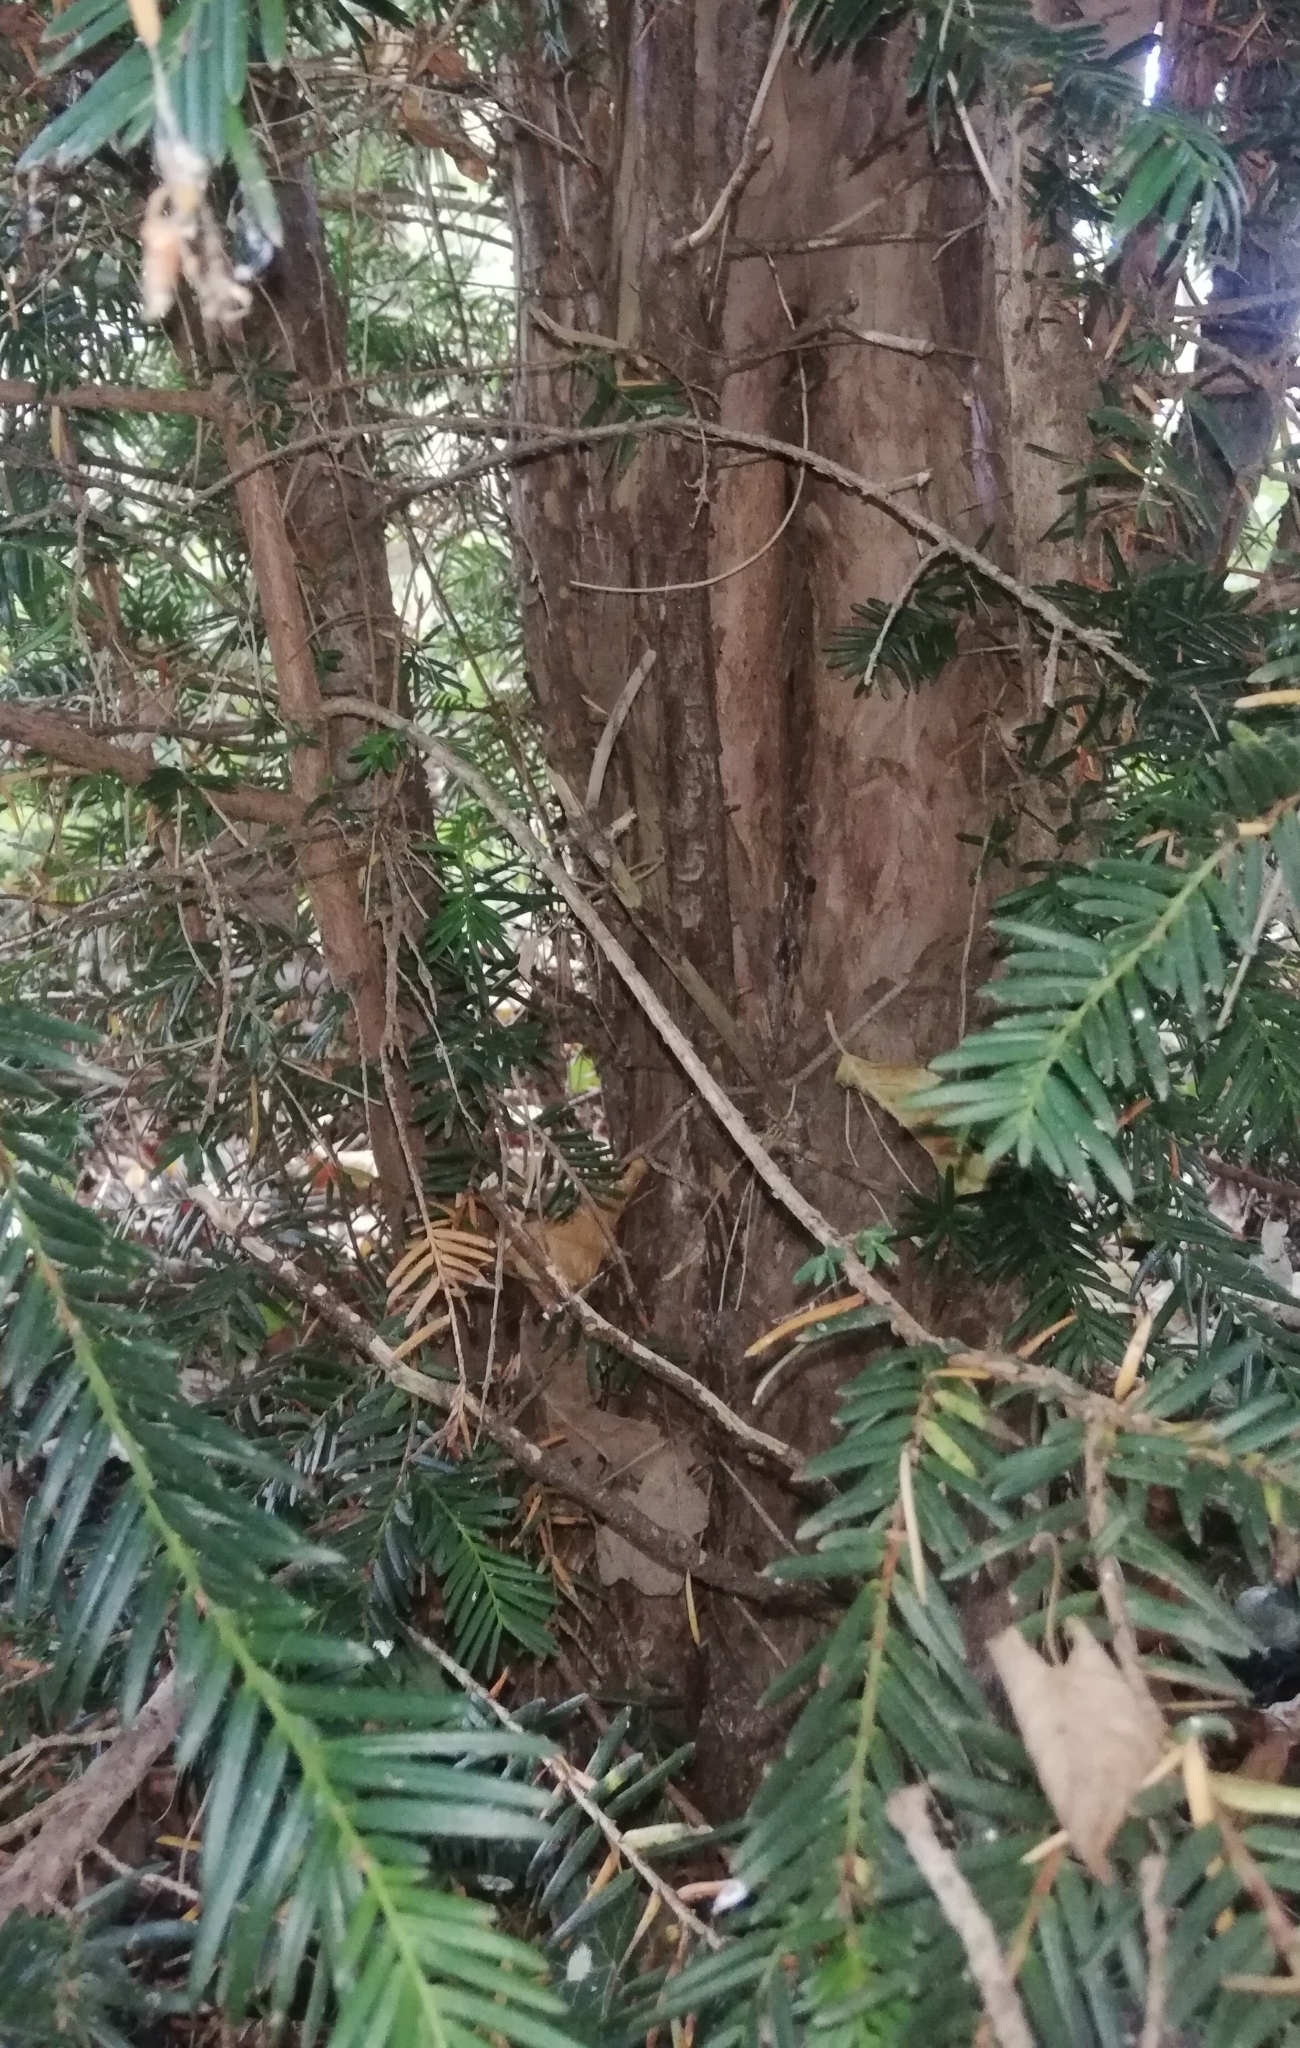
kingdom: Plantae
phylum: Tracheophyta
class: Pinopsida
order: Pinales
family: Taxaceae
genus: Taxus
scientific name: Taxus baccata
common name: Yew
